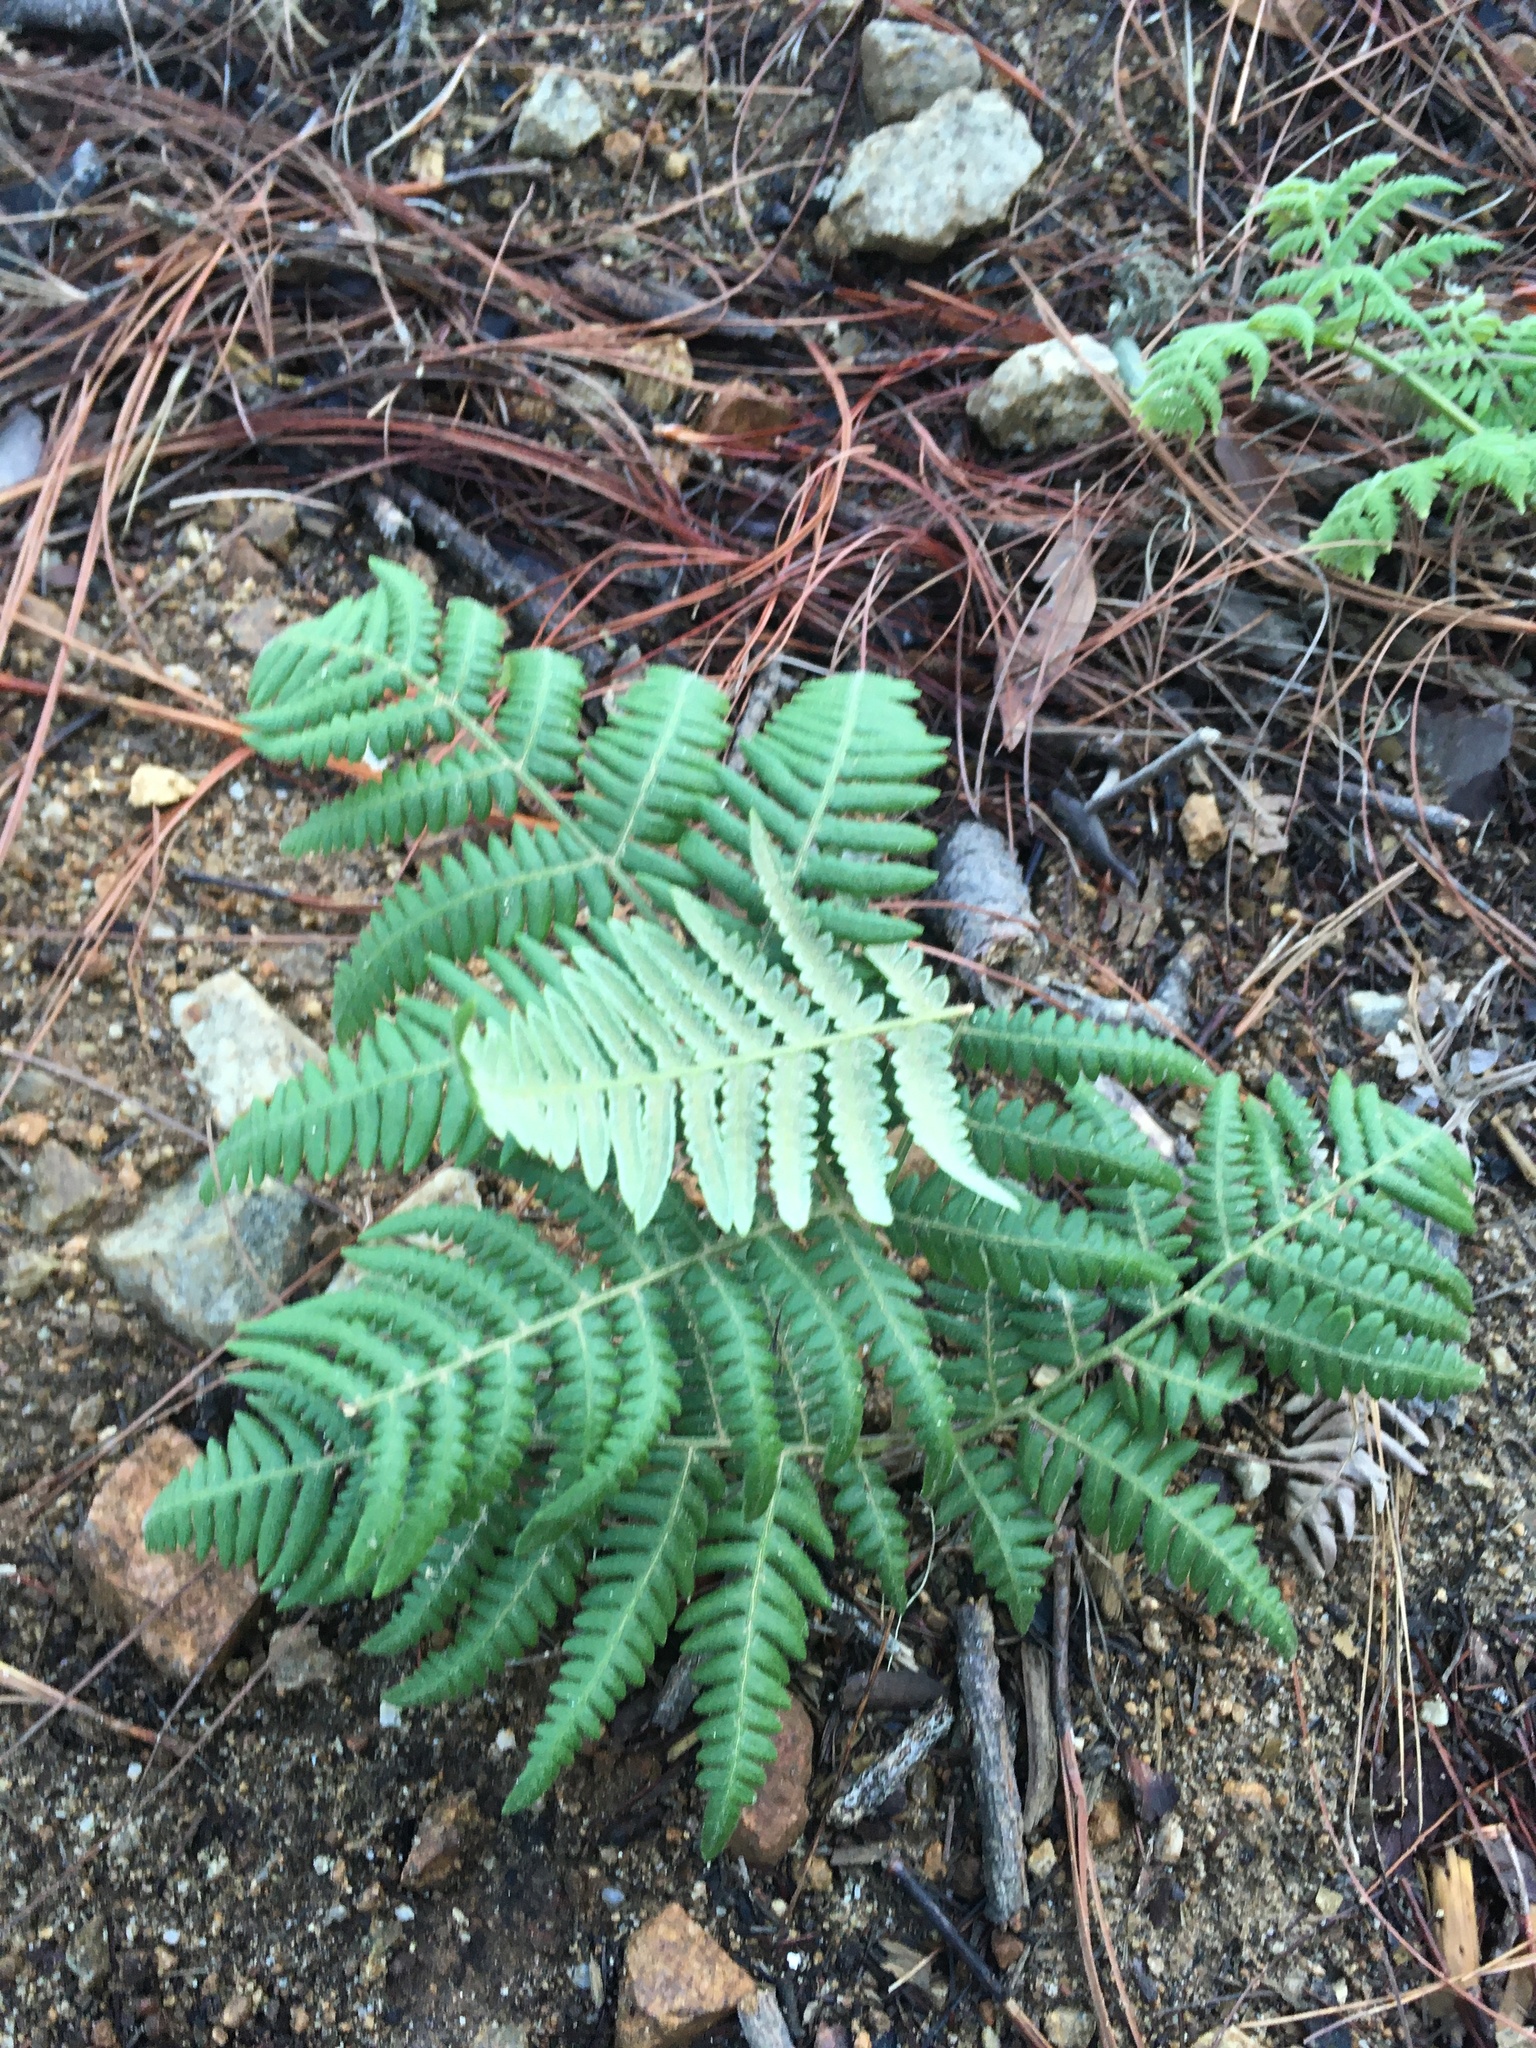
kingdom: Plantae
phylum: Tracheophyta
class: Polypodiopsida
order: Polypodiales
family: Dennstaedtiaceae
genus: Pteridium
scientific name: Pteridium aquilinum
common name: Bracken
